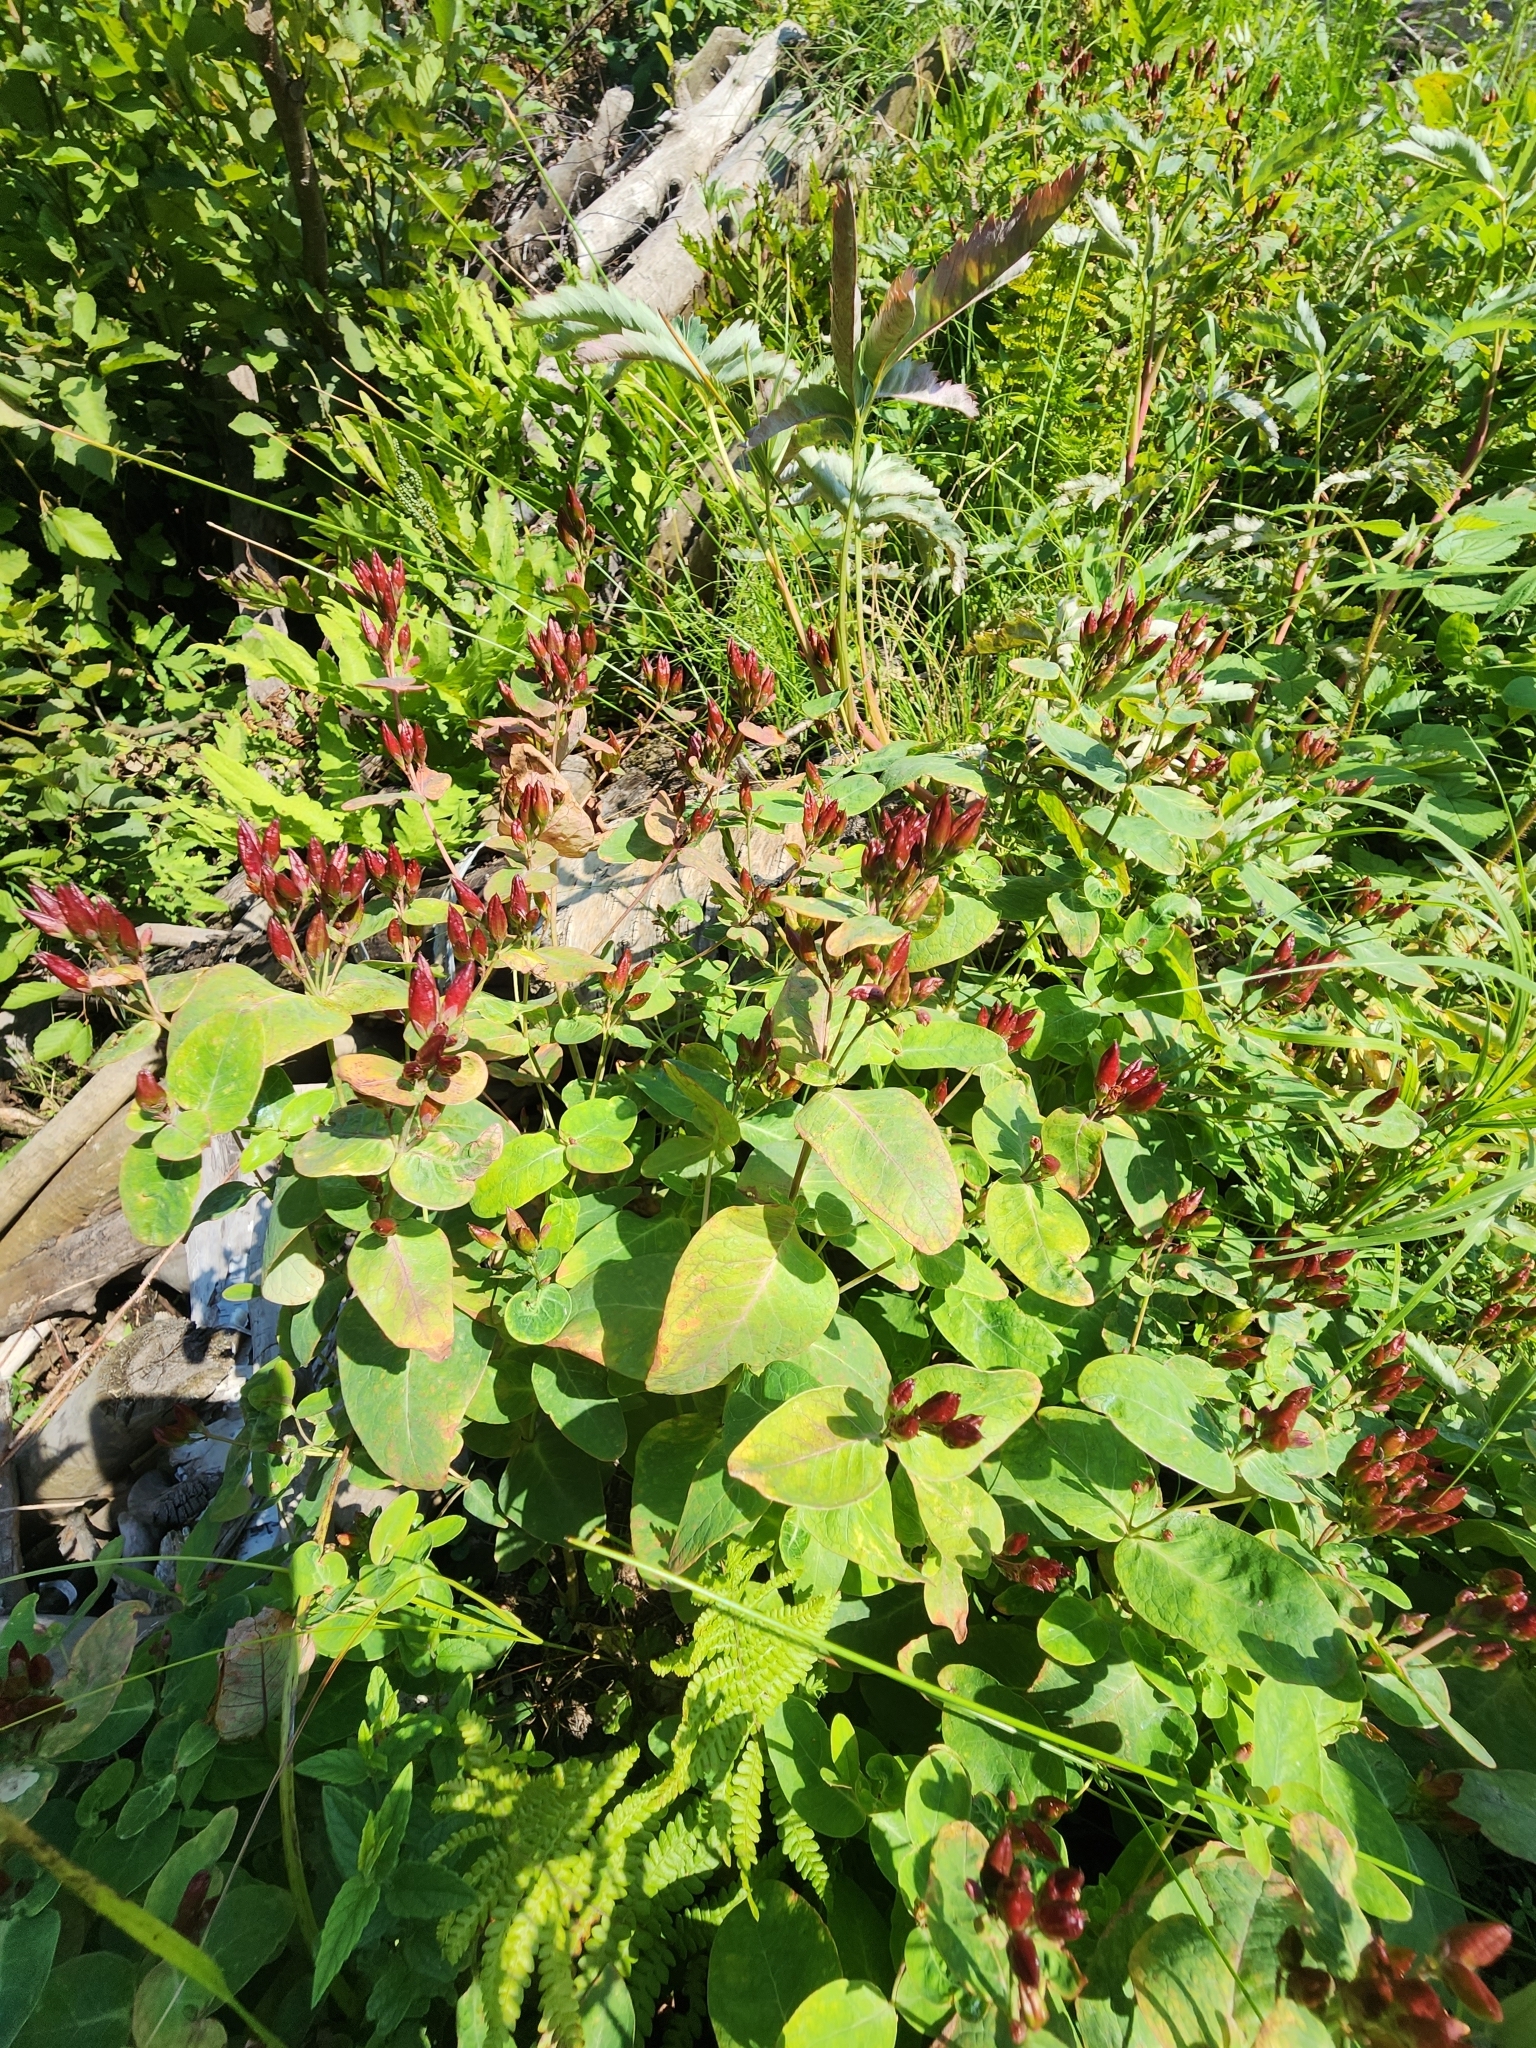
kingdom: Plantae
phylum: Tracheophyta
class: Magnoliopsida
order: Malpighiales
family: Hypericaceae
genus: Triadenum
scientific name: Triadenum fraseri
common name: Fraser's marsh st. johnswort
